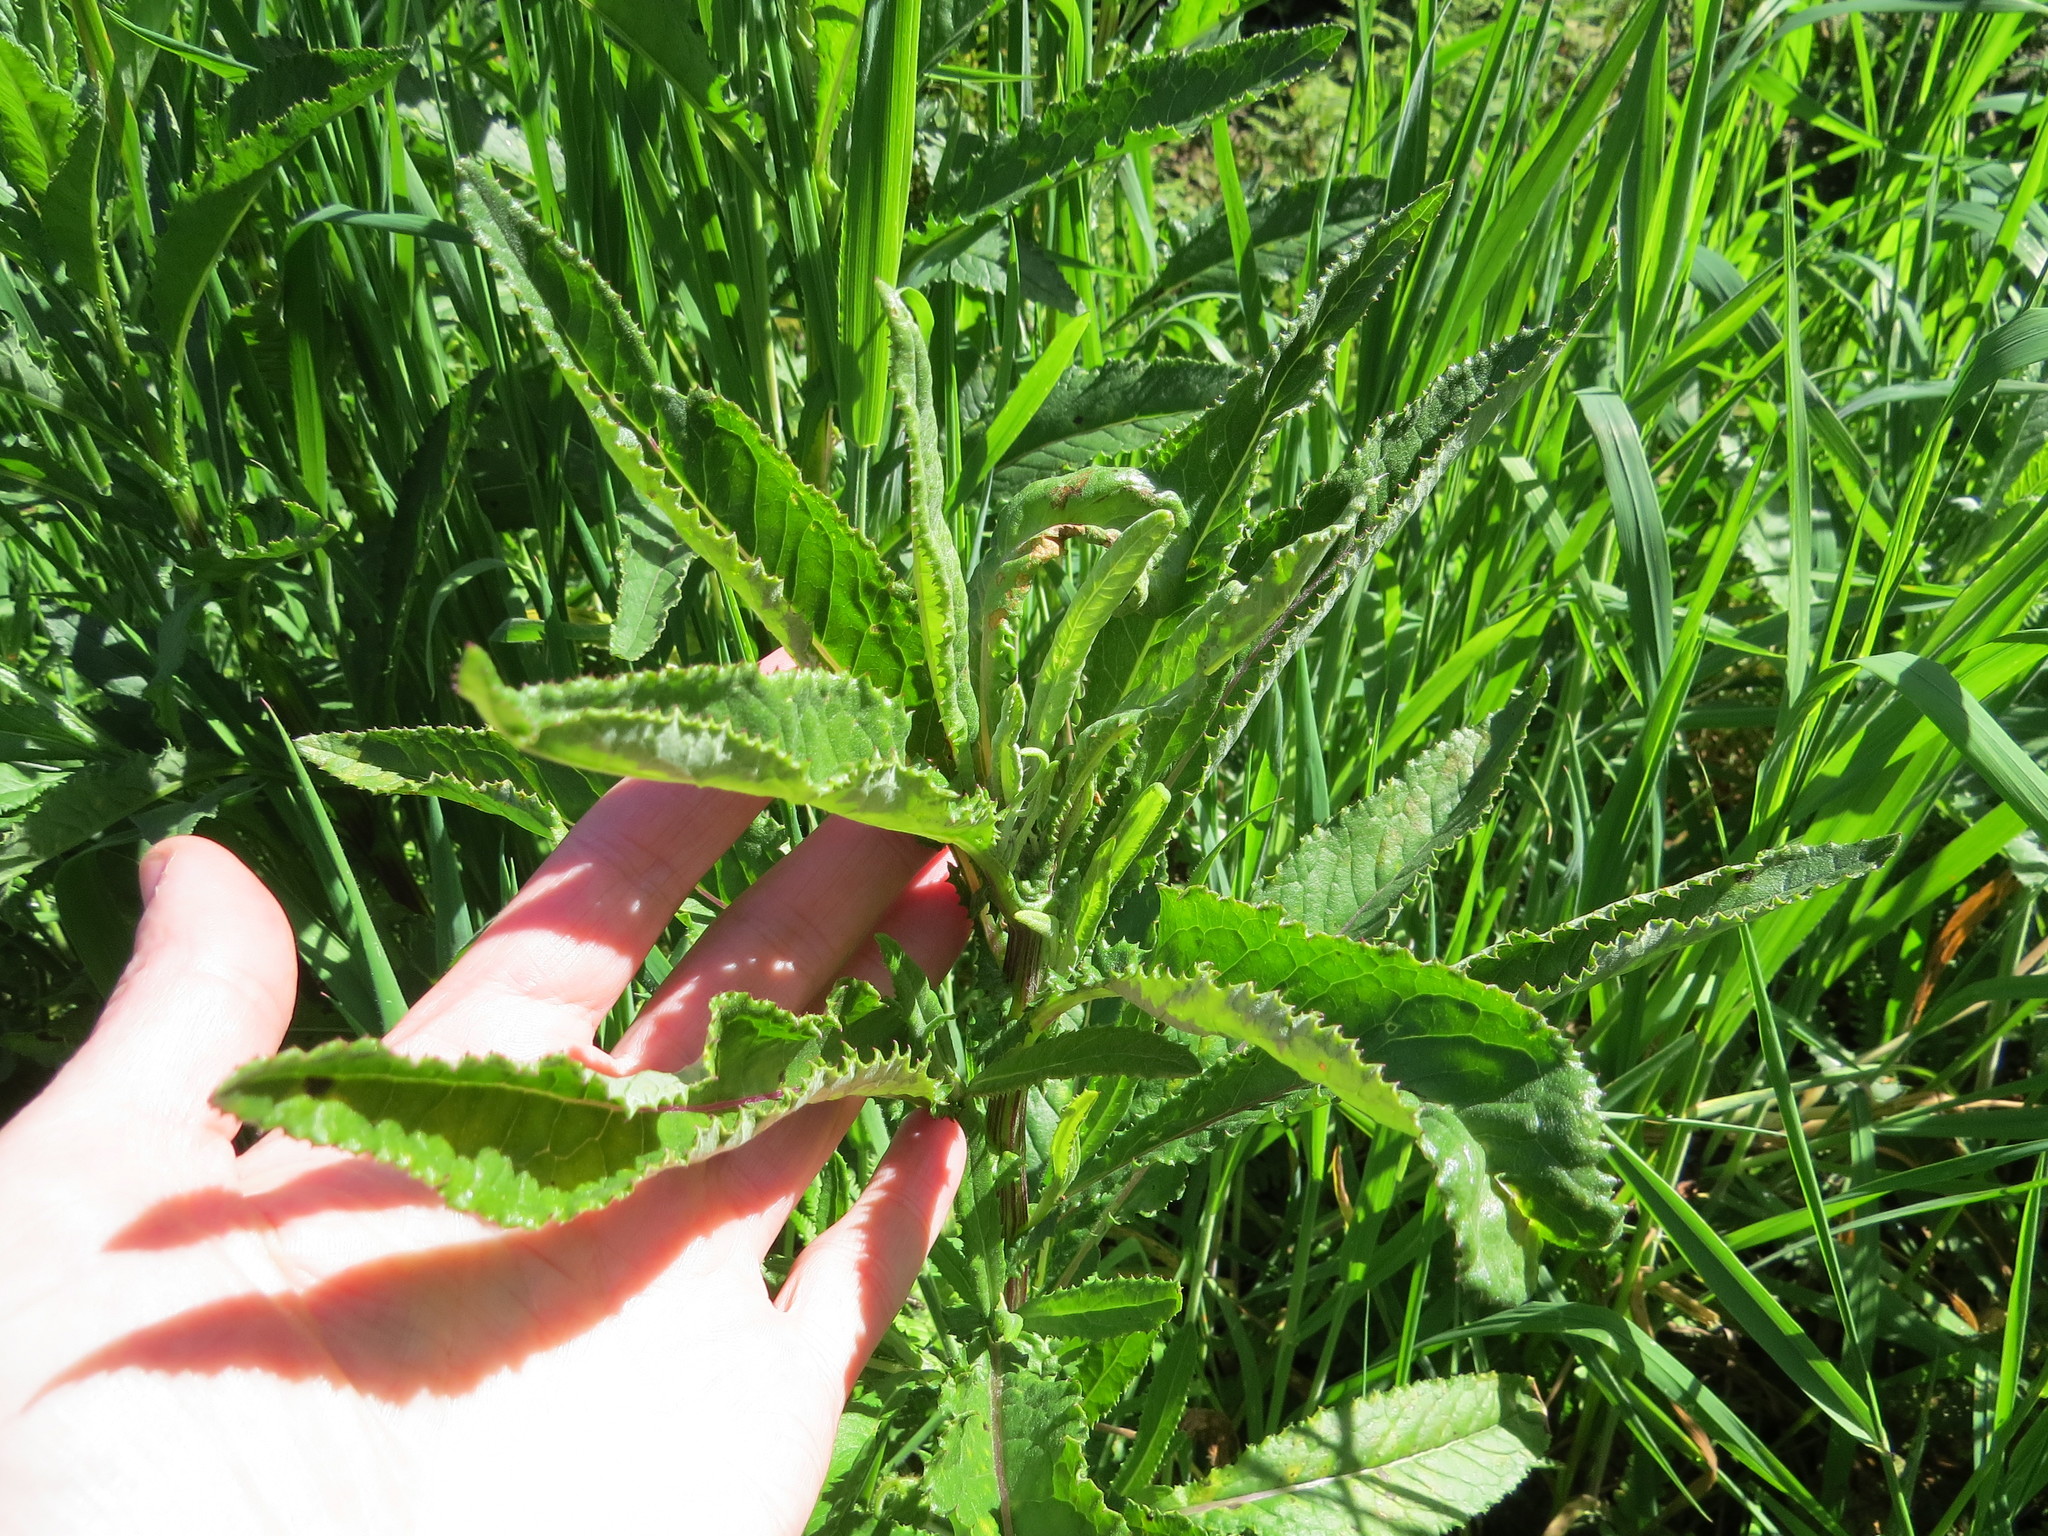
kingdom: Plantae
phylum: Tracheophyta
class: Magnoliopsida
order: Asterales
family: Asteraceae
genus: Senecio
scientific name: Senecio minimus
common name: Toothed fireweed
